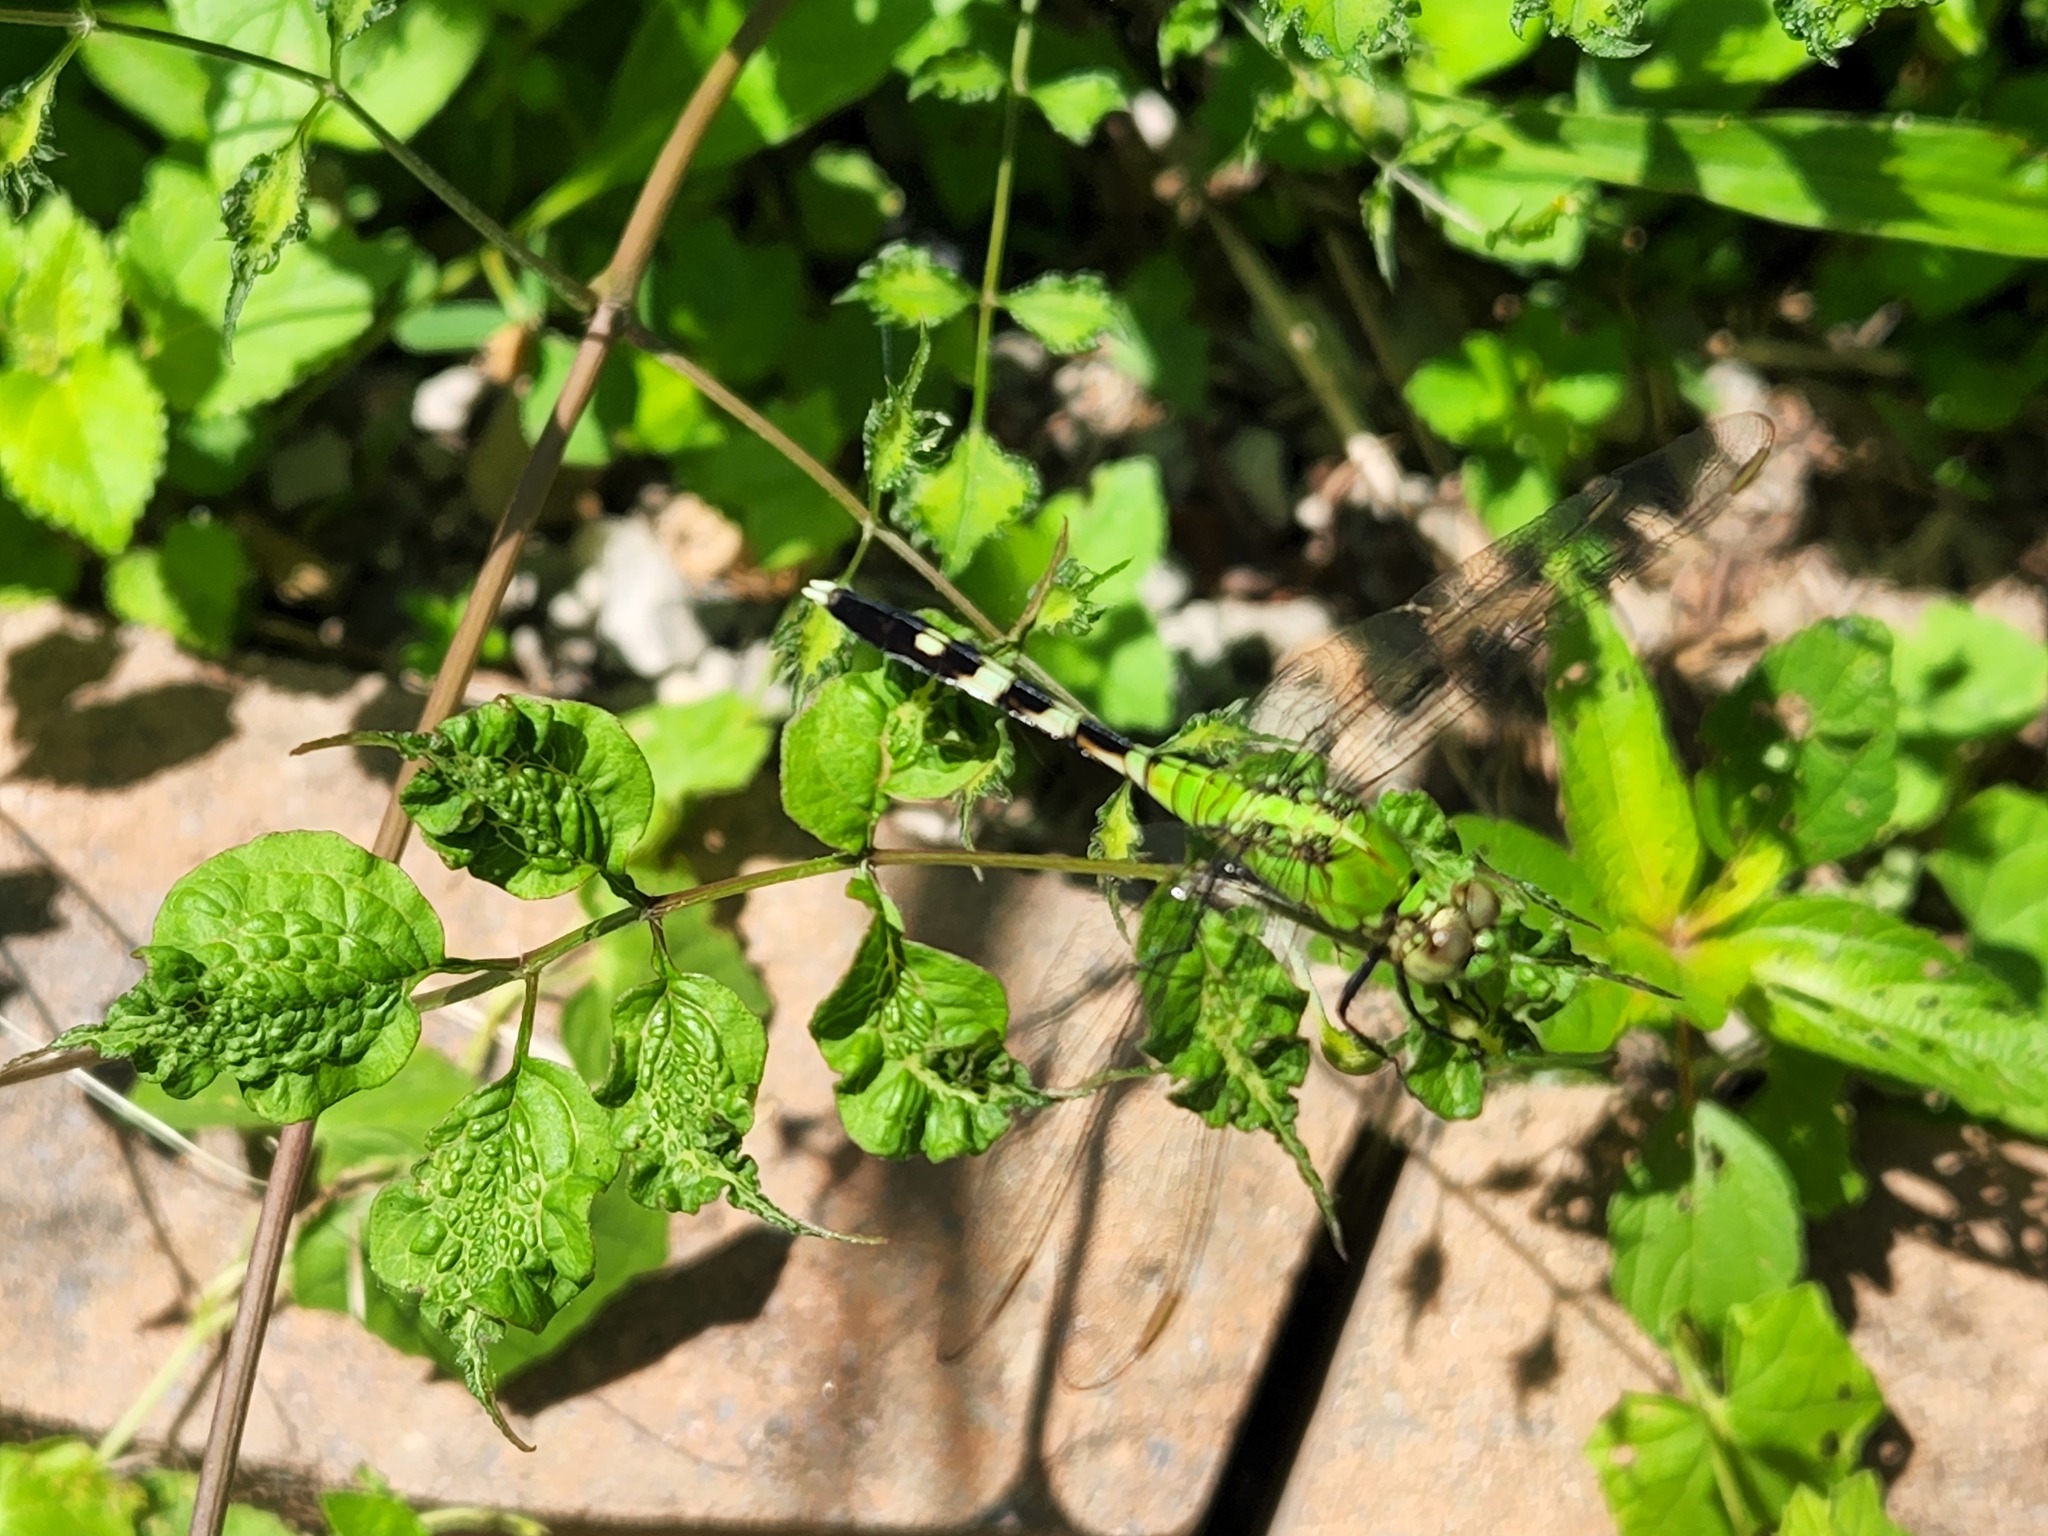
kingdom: Animalia
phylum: Arthropoda
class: Insecta
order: Odonata
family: Libellulidae
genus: Erythemis
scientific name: Erythemis simplicicollis
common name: Eastern pondhawk
